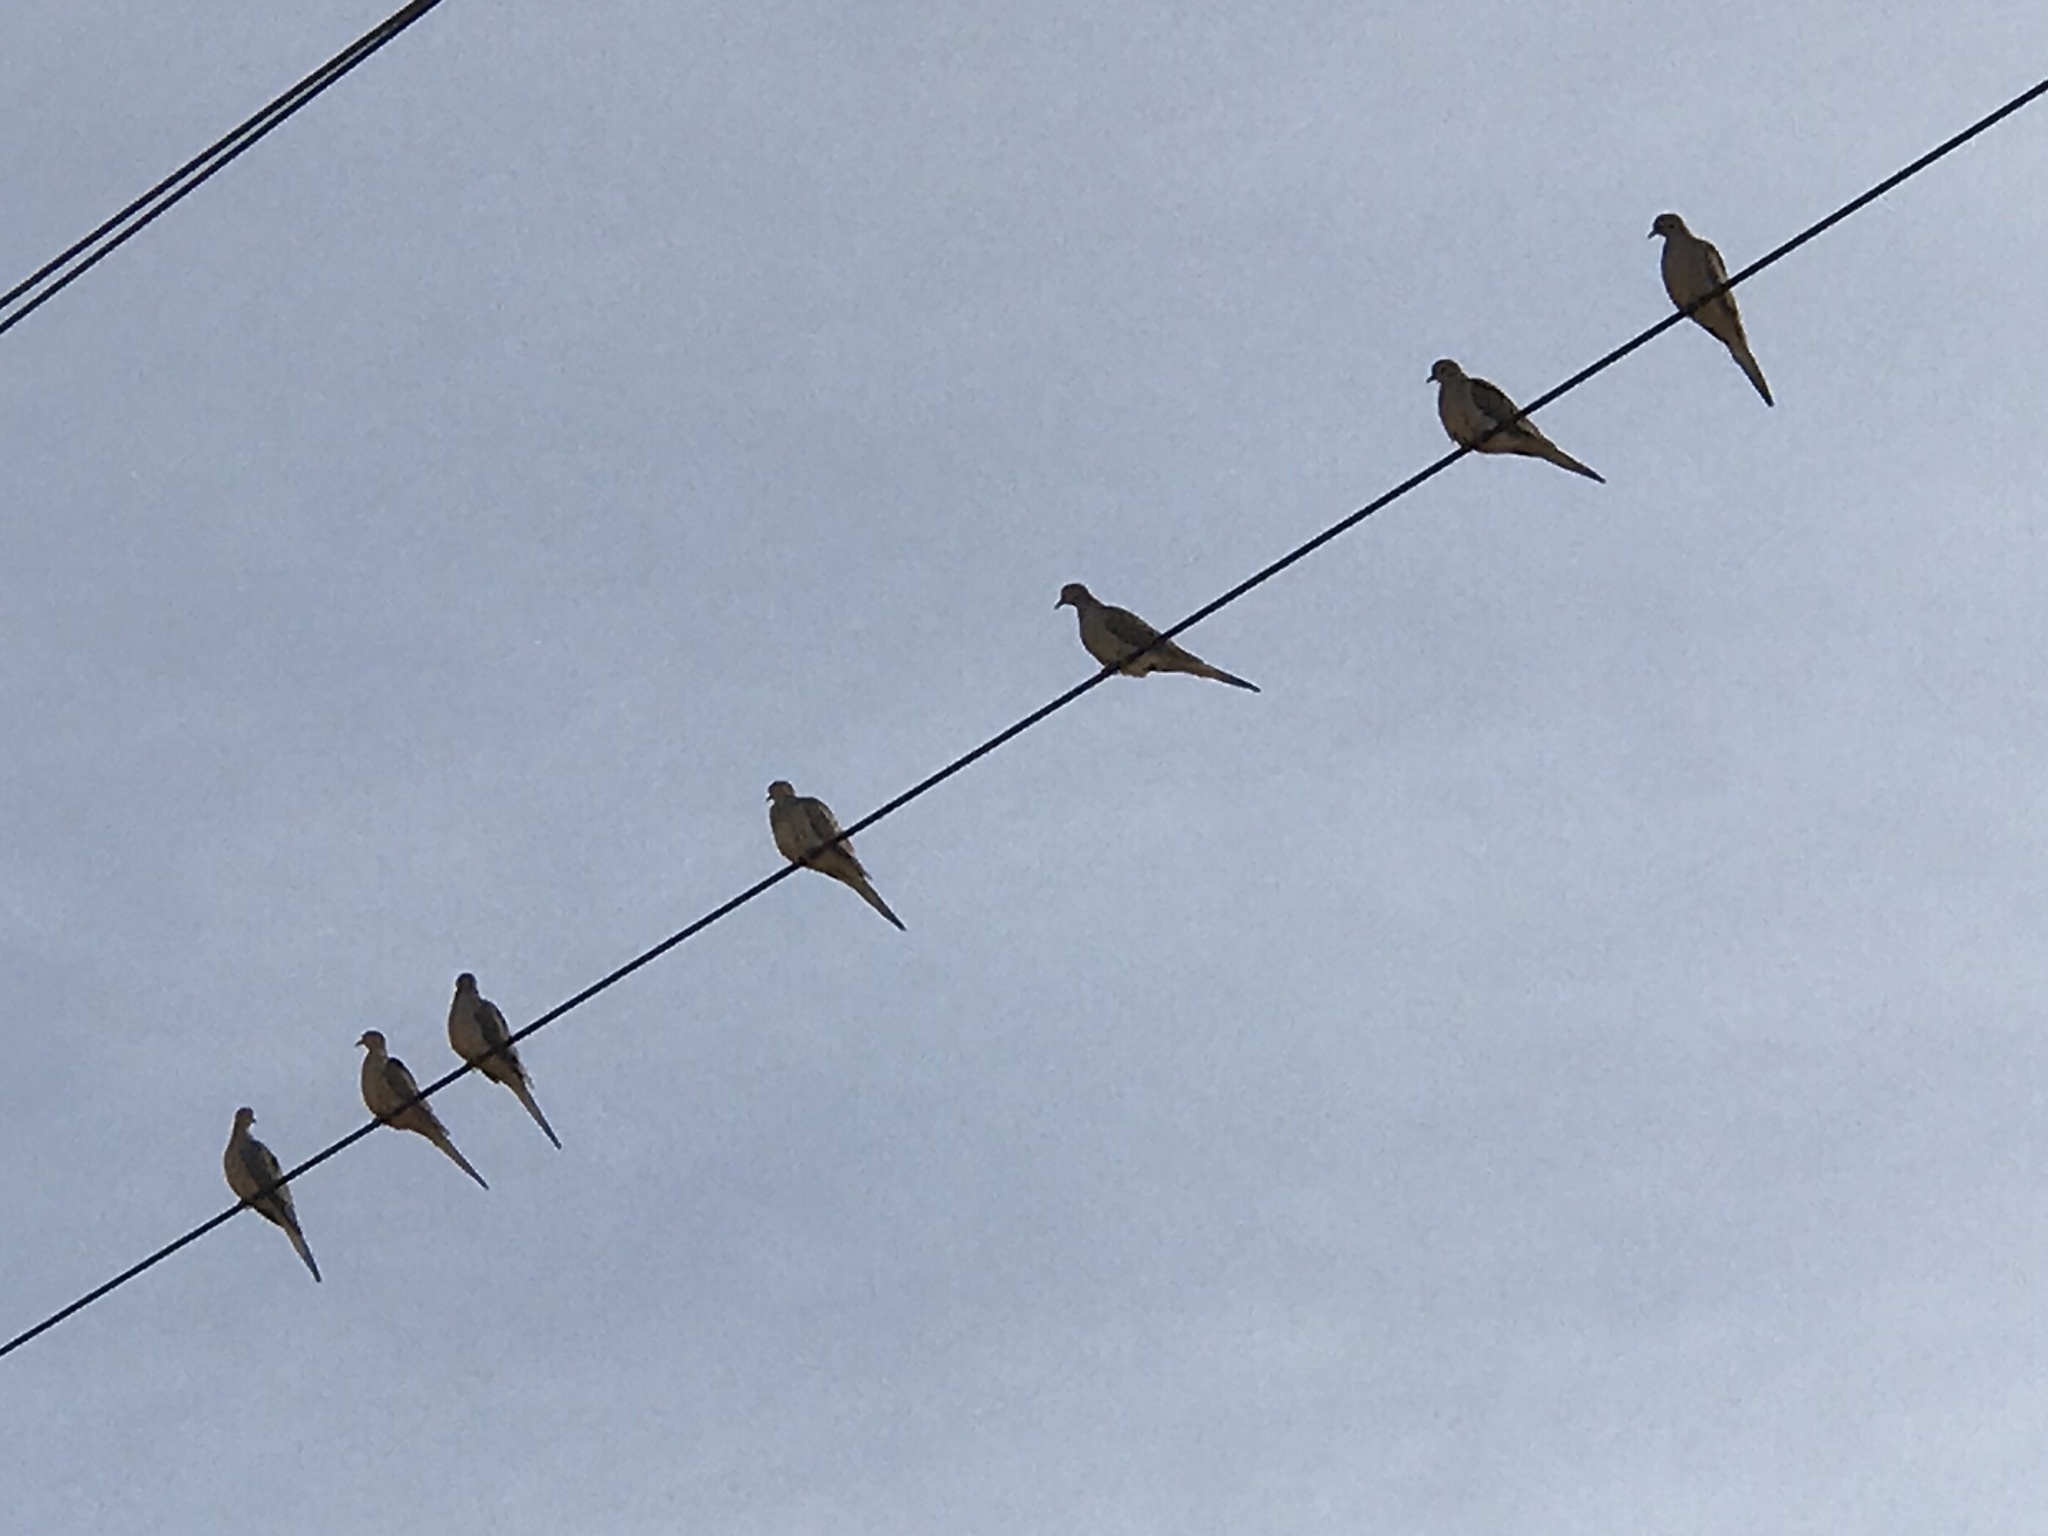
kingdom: Animalia
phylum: Chordata
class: Aves
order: Columbiformes
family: Columbidae
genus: Zenaida
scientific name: Zenaida macroura
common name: Mourning dove
